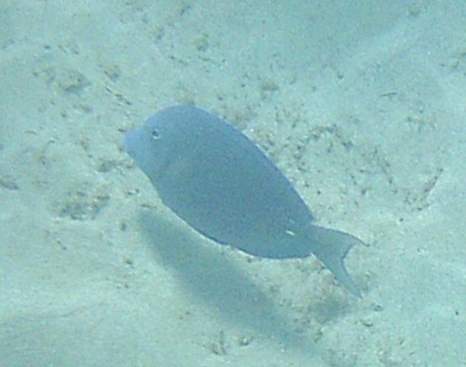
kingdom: Animalia
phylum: Chordata
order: Perciformes
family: Acanthuridae
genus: Acanthurus
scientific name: Acanthurus coeruleus
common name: Blue tang
